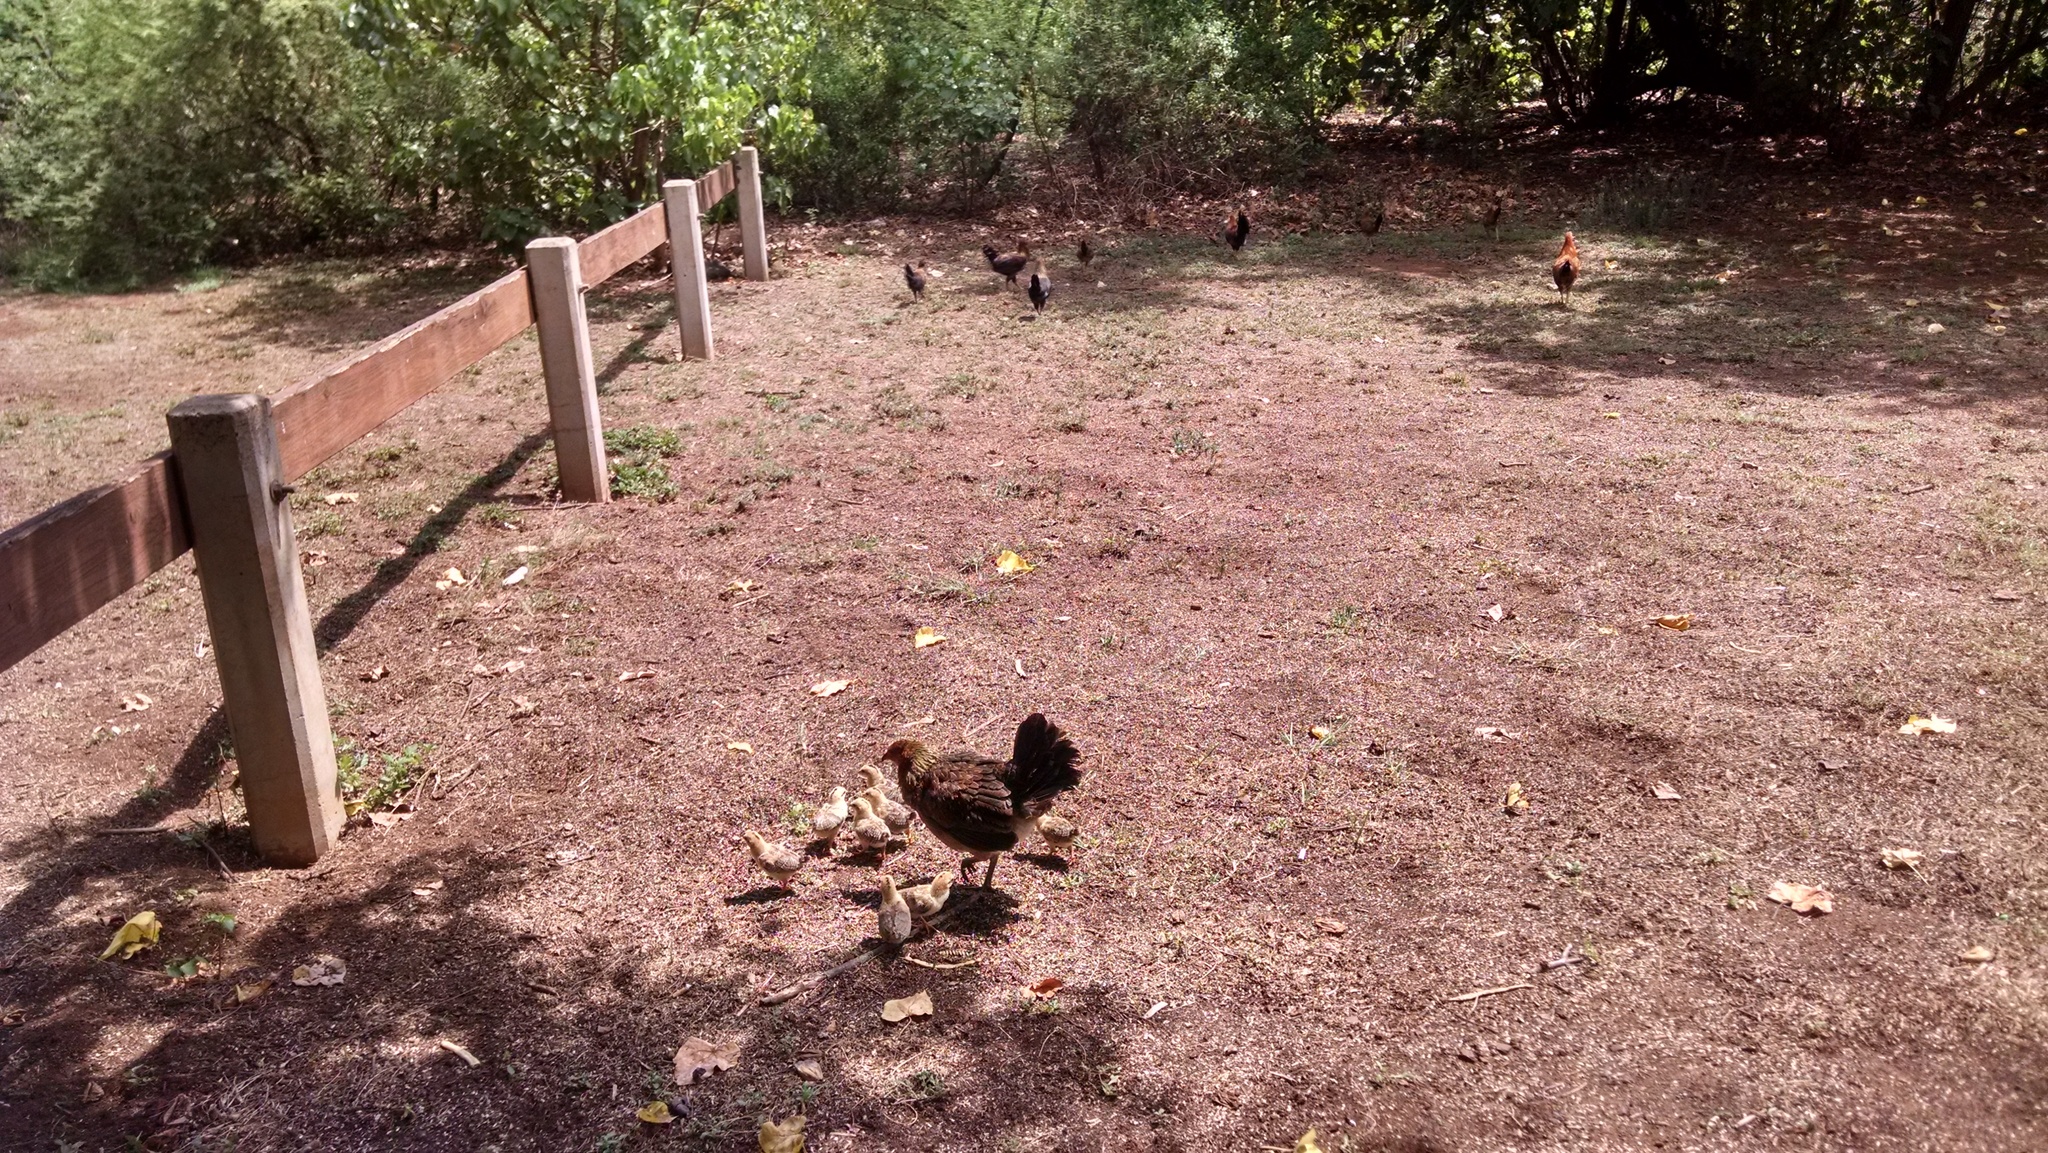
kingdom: Animalia
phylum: Chordata
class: Aves
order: Galliformes
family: Phasianidae
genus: Gallus
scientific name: Gallus gallus
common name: Red junglefowl
